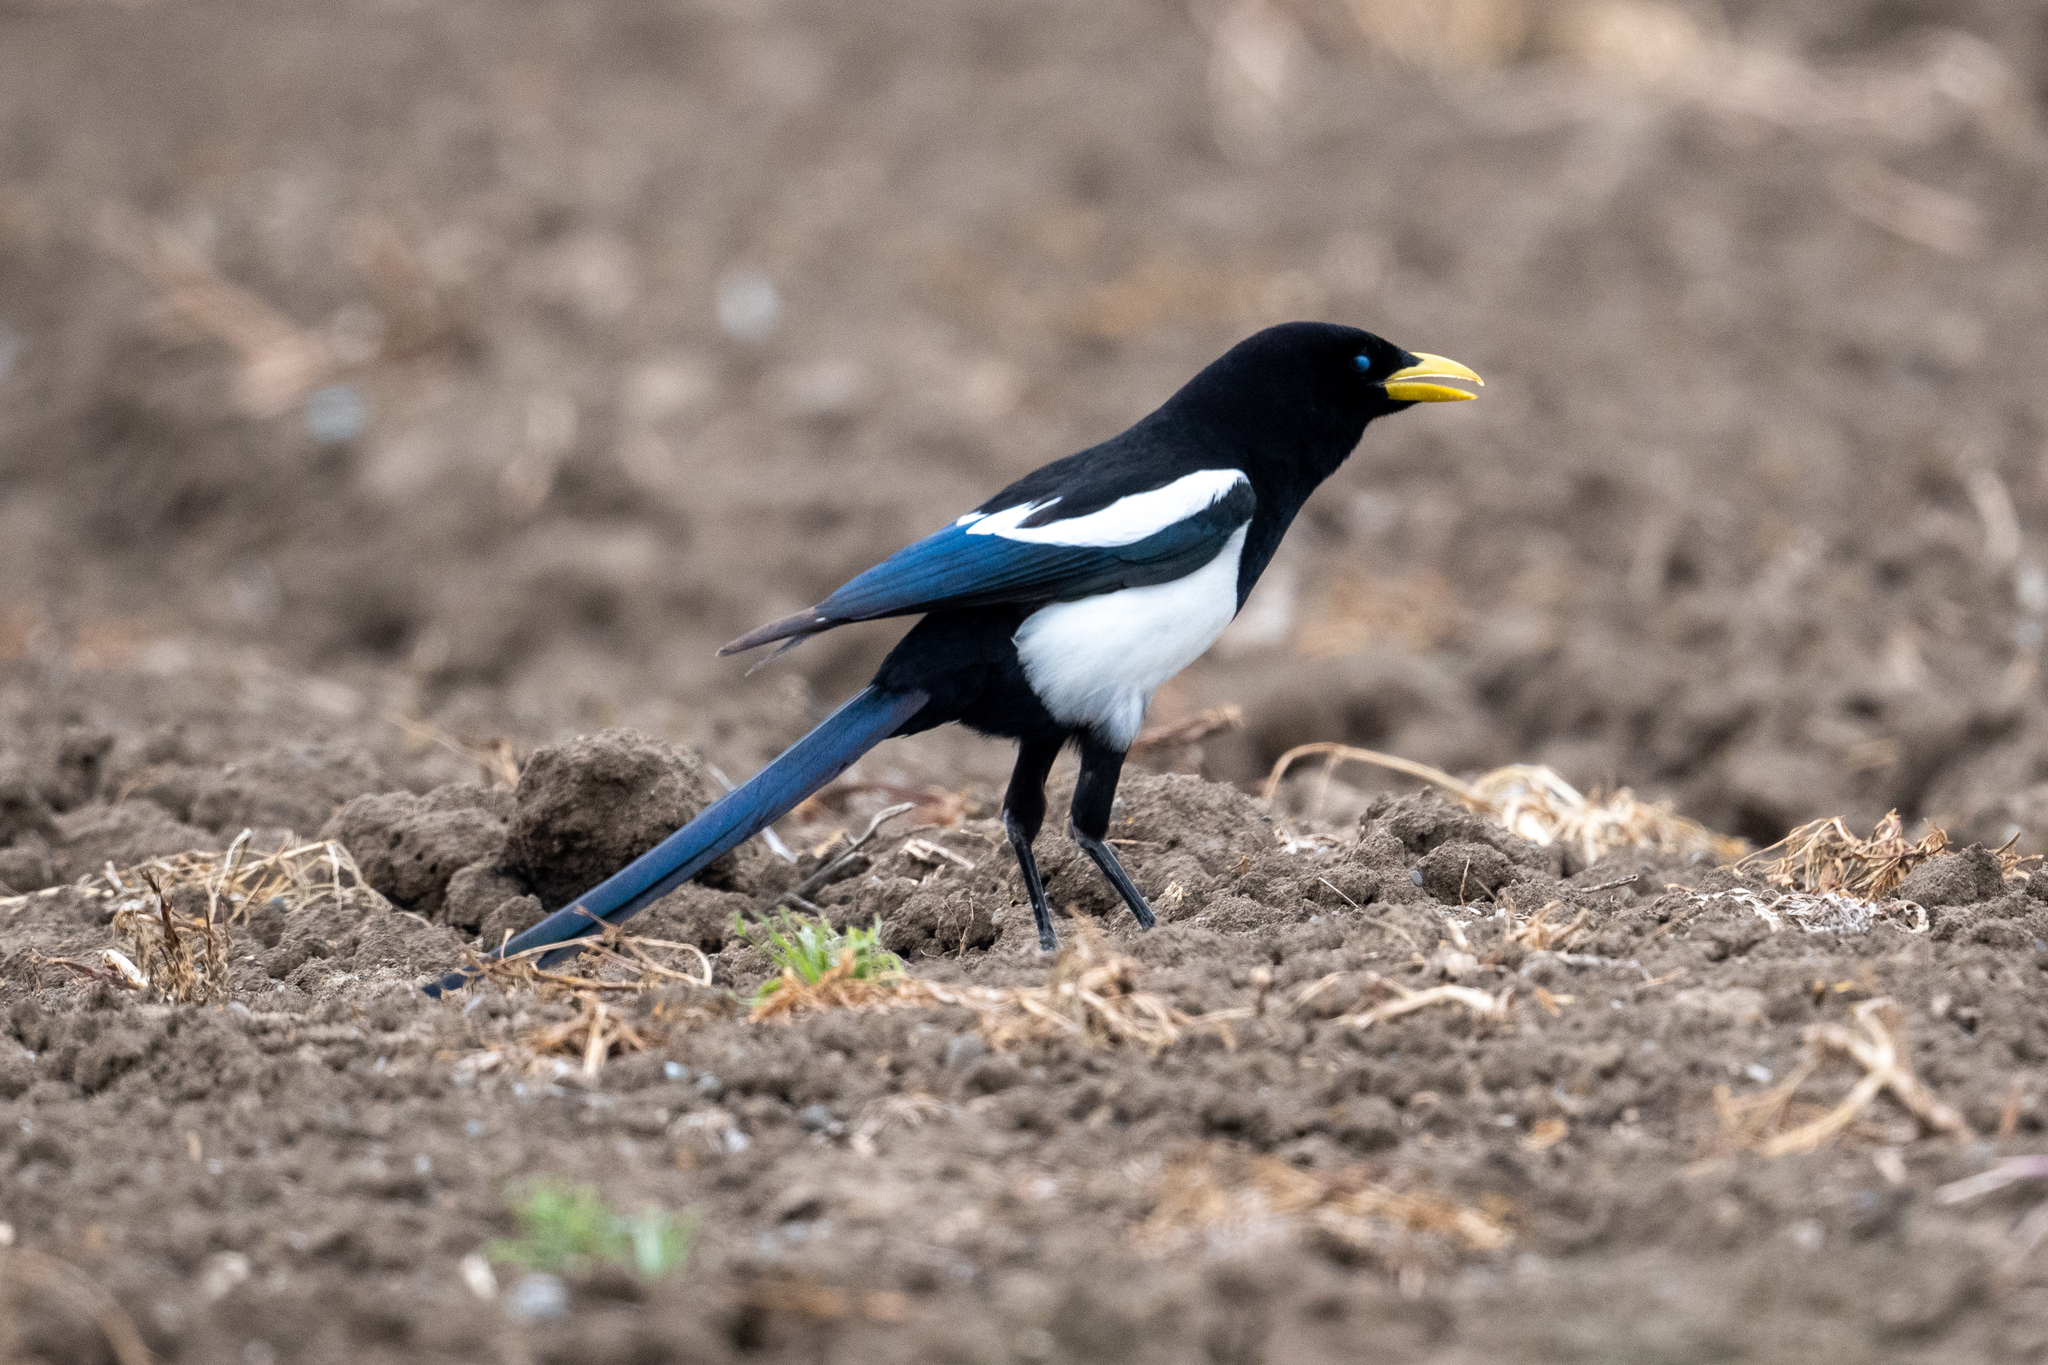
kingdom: Animalia
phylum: Chordata
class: Aves
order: Passeriformes
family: Corvidae
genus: Pica
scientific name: Pica nuttalli
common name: Yellow-billed magpie
